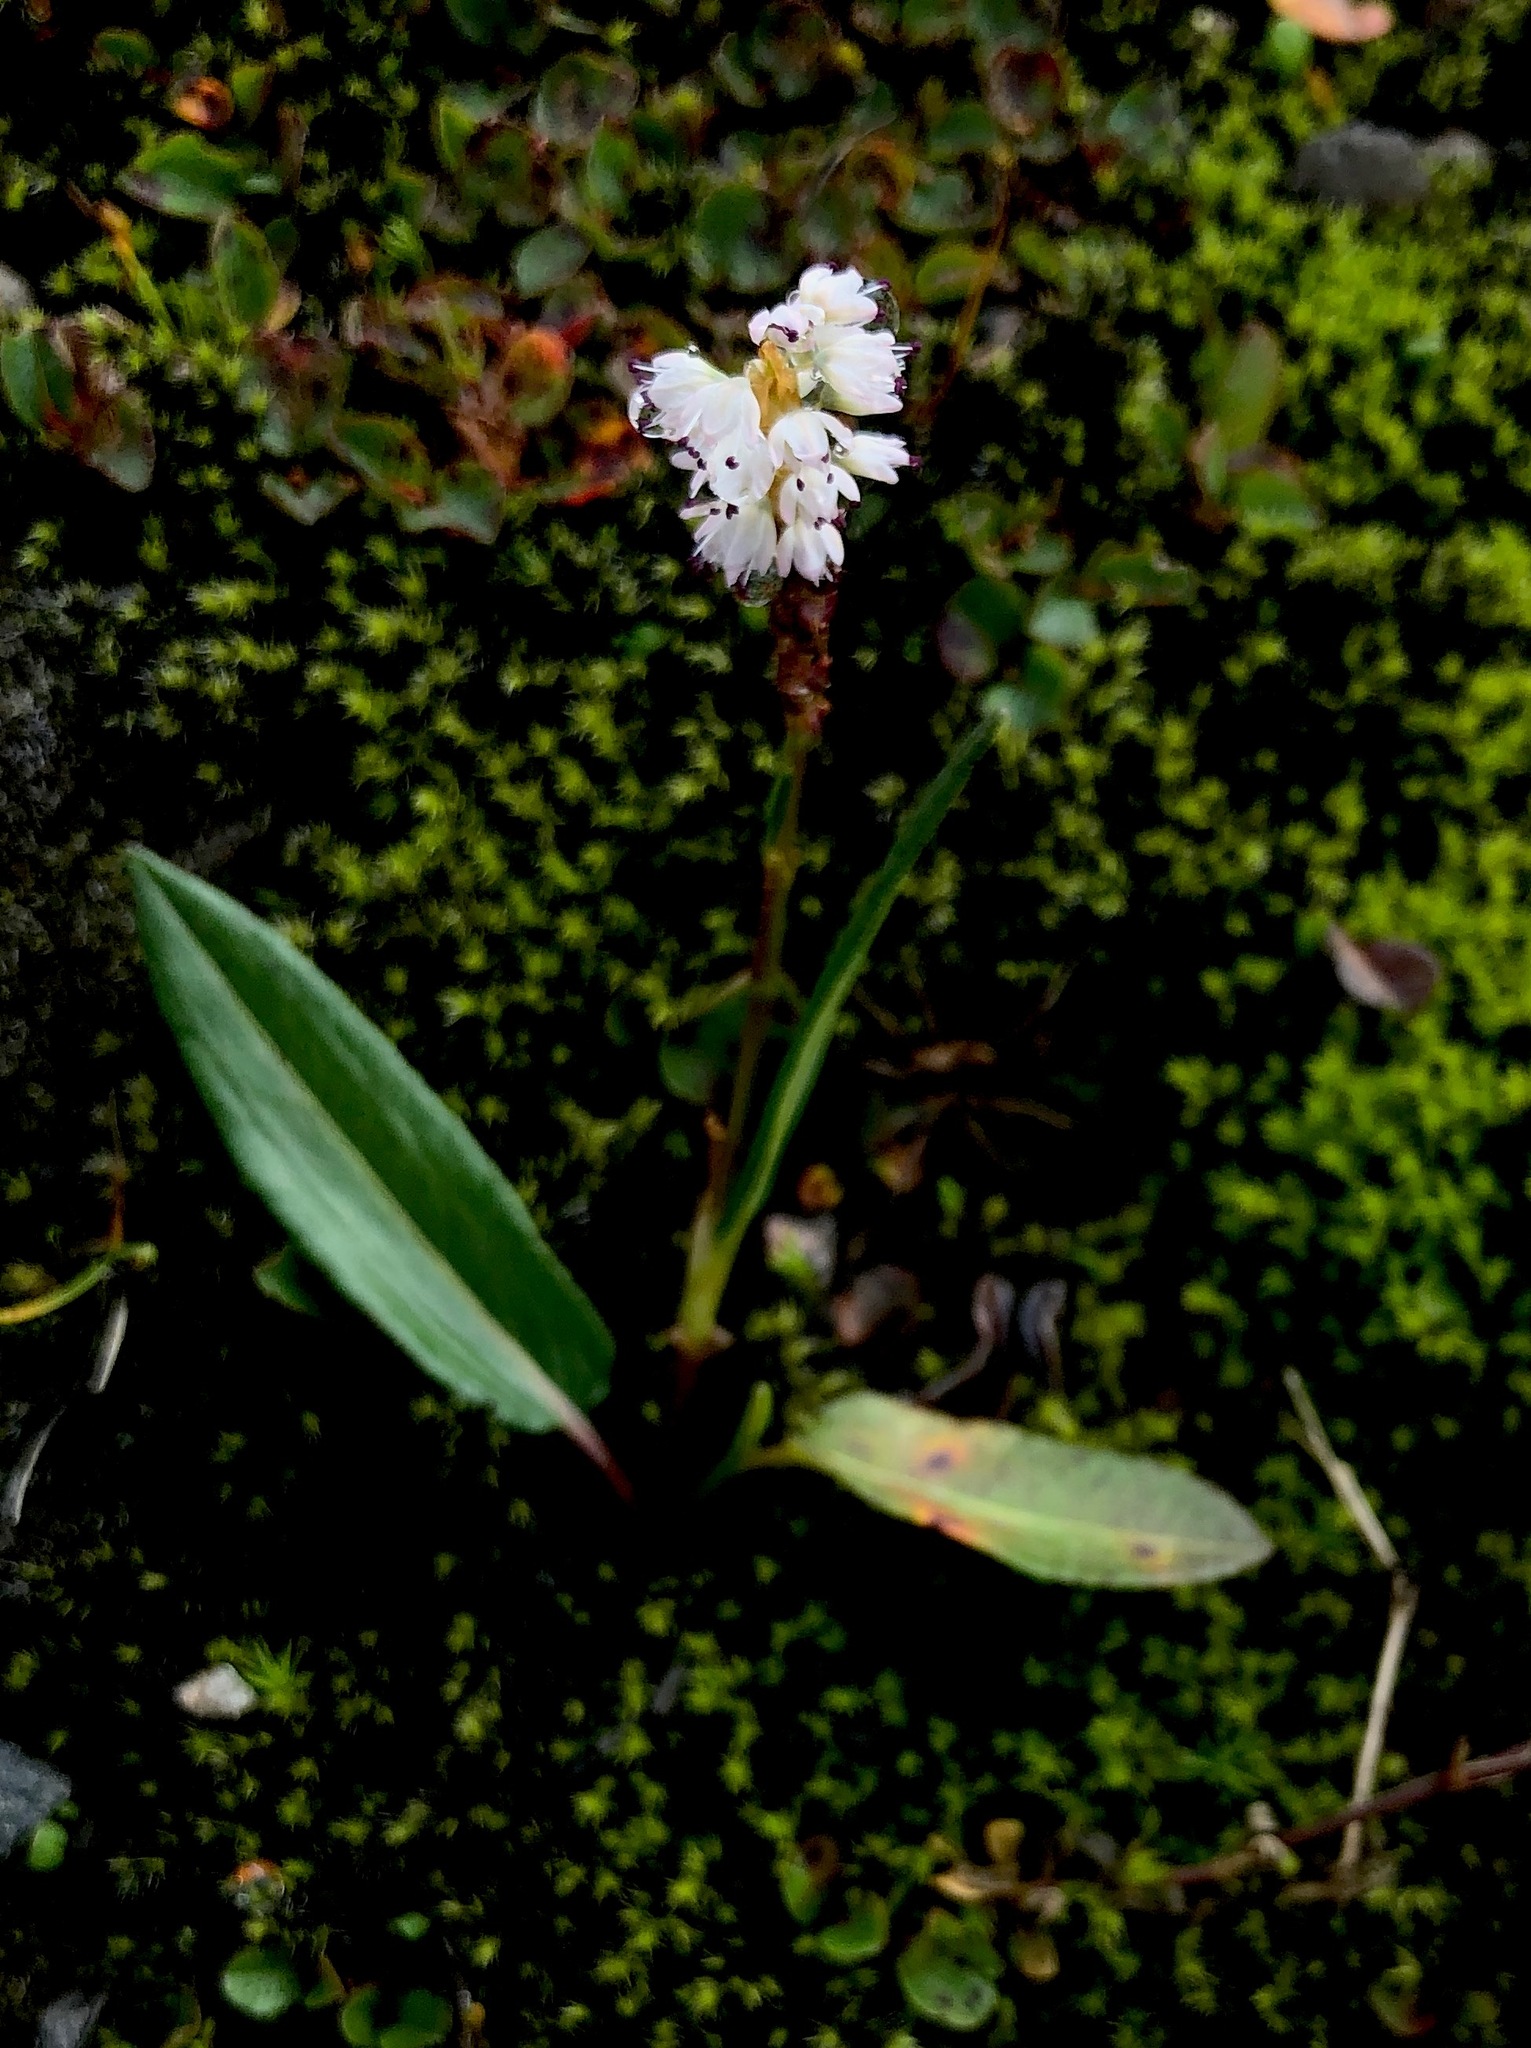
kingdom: Plantae
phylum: Tracheophyta
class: Magnoliopsida
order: Caryophyllales
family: Polygonaceae
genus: Bistorta
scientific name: Bistorta vivipara
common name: Alpine bistort
